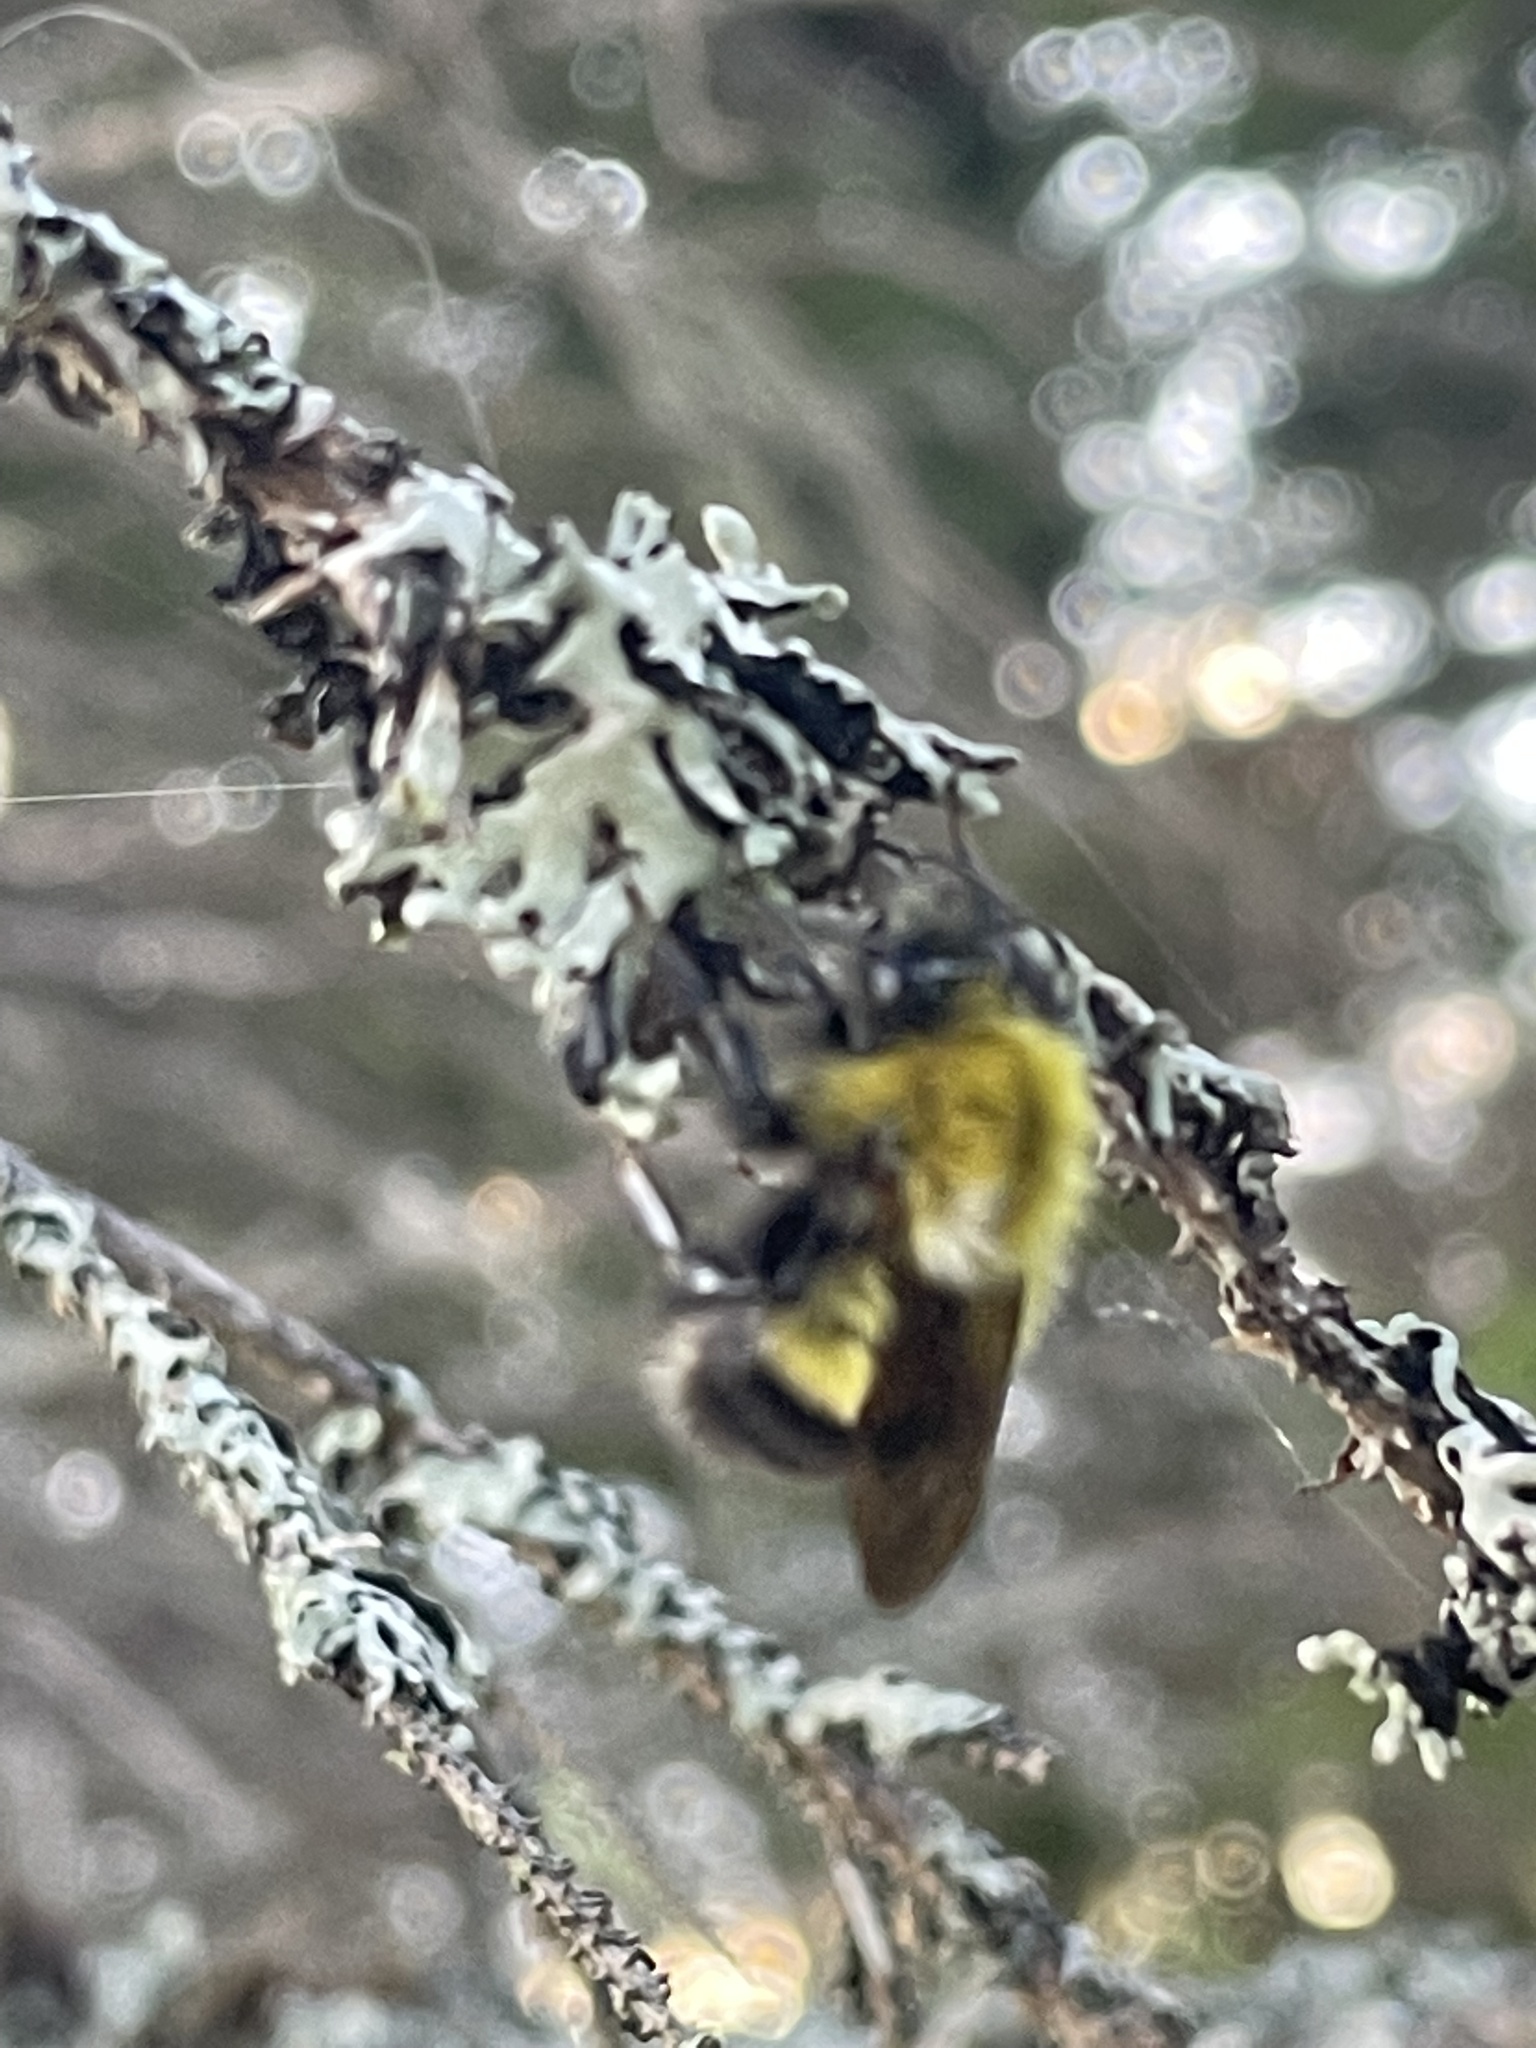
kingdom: Animalia
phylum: Arthropoda
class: Insecta
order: Hymenoptera
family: Apidae
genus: Bombus
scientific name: Bombus perplexus
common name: Confusing bumble bee
